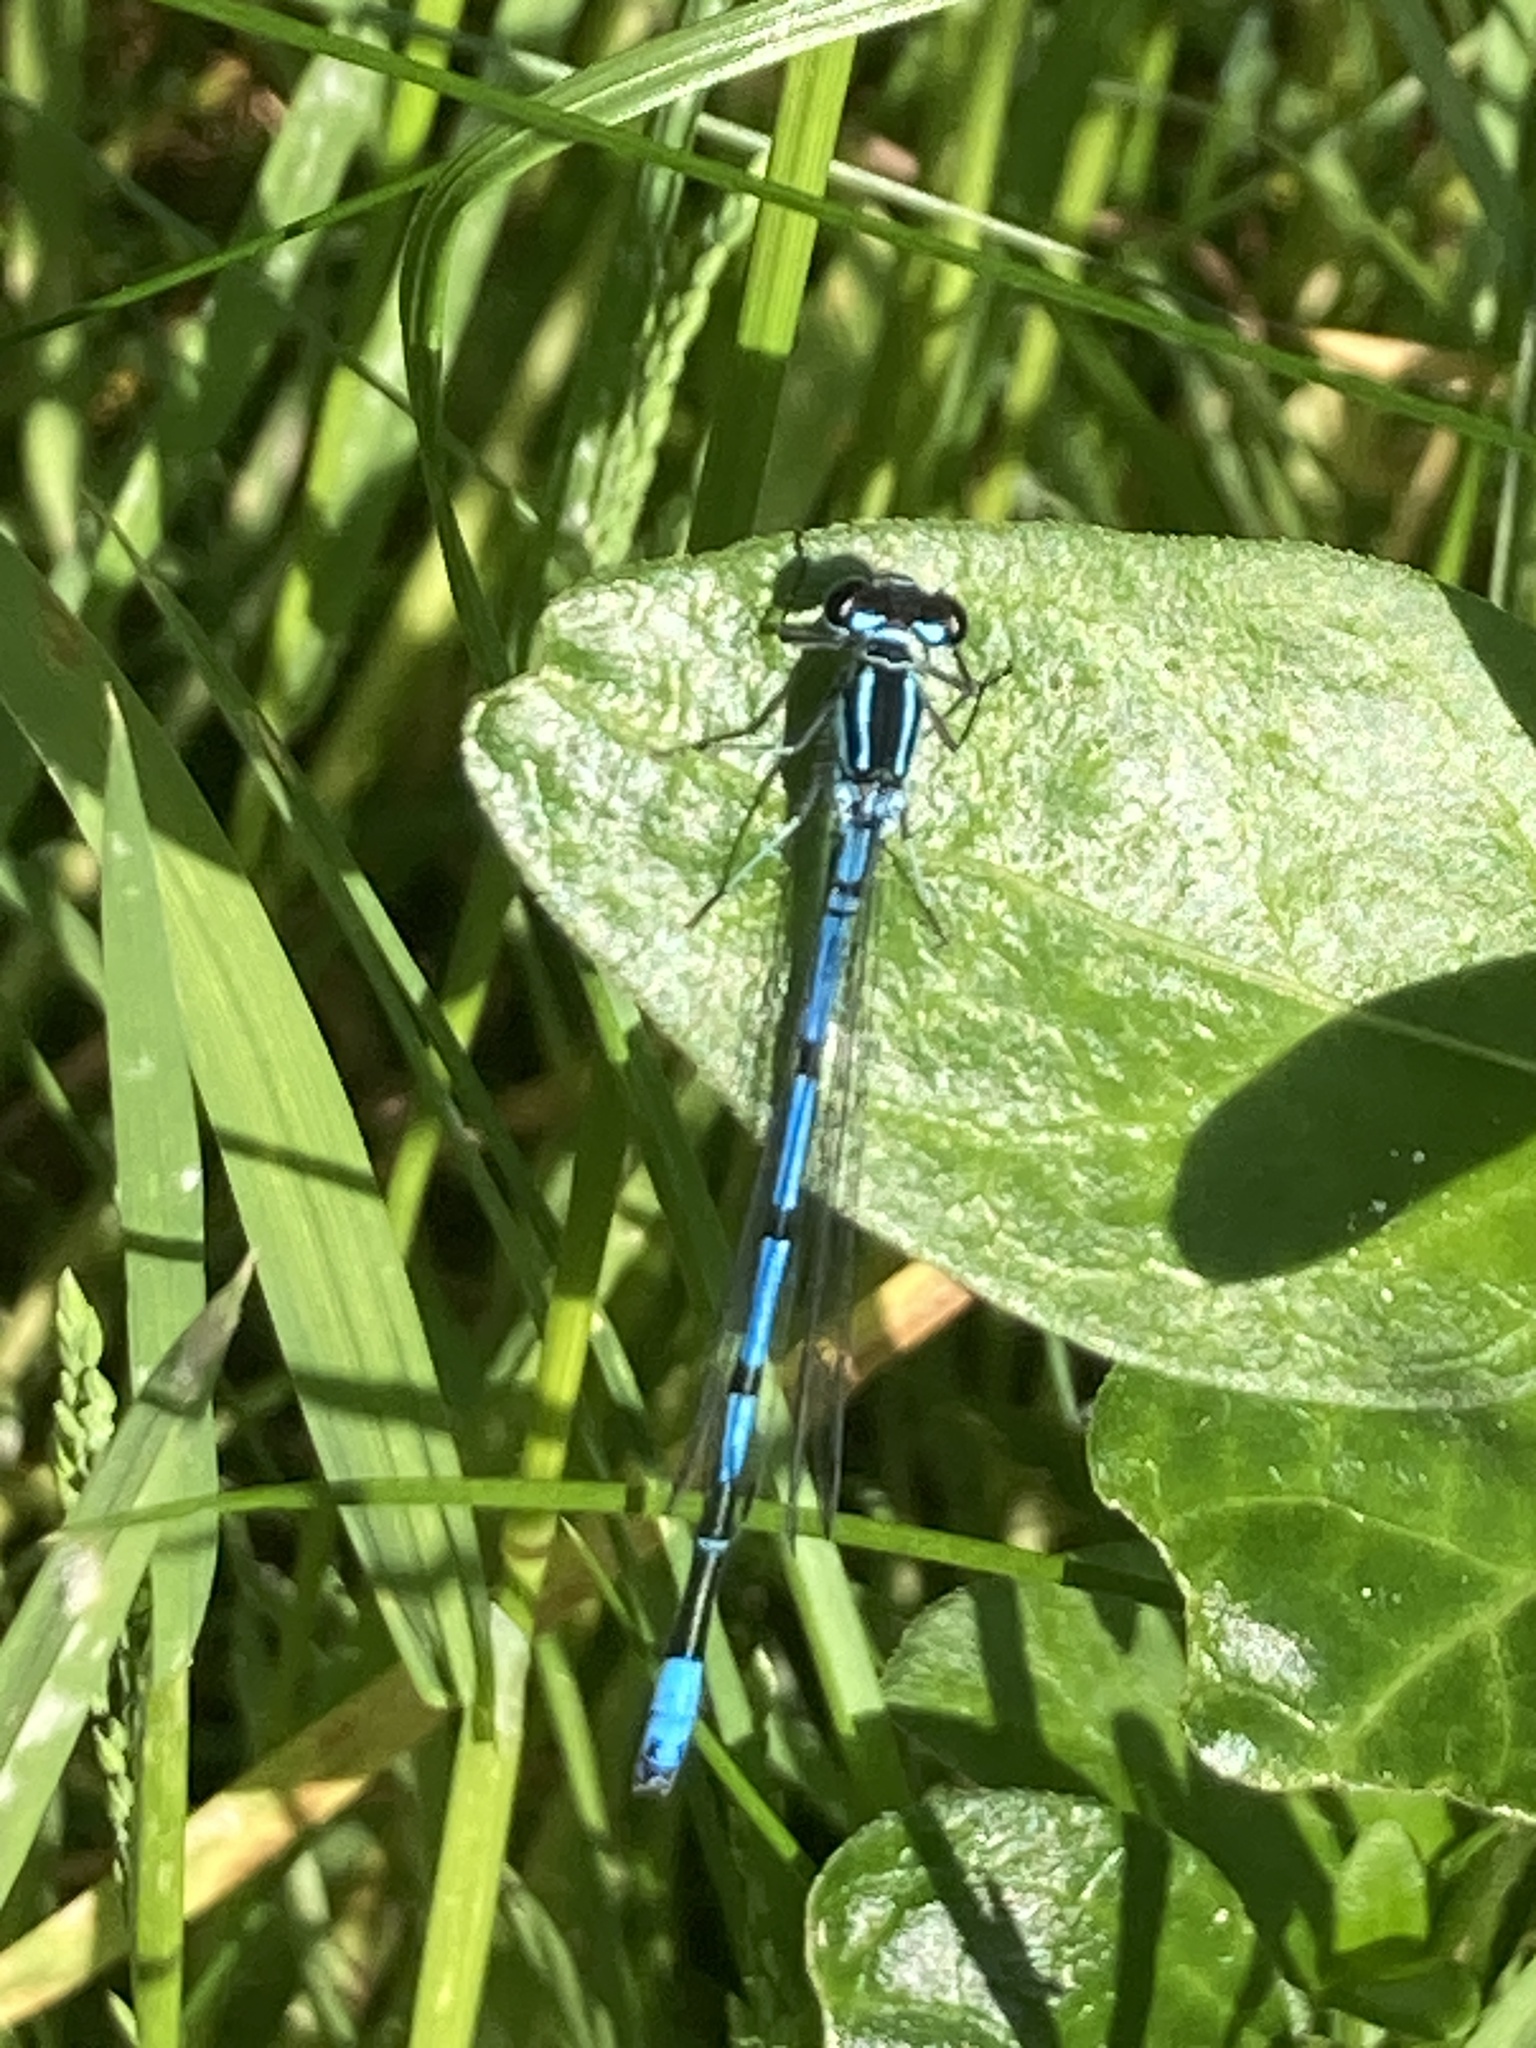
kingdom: Animalia
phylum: Arthropoda
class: Insecta
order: Odonata
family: Coenagrionidae
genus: Coenagrion
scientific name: Coenagrion puella
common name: Azure damselfly
